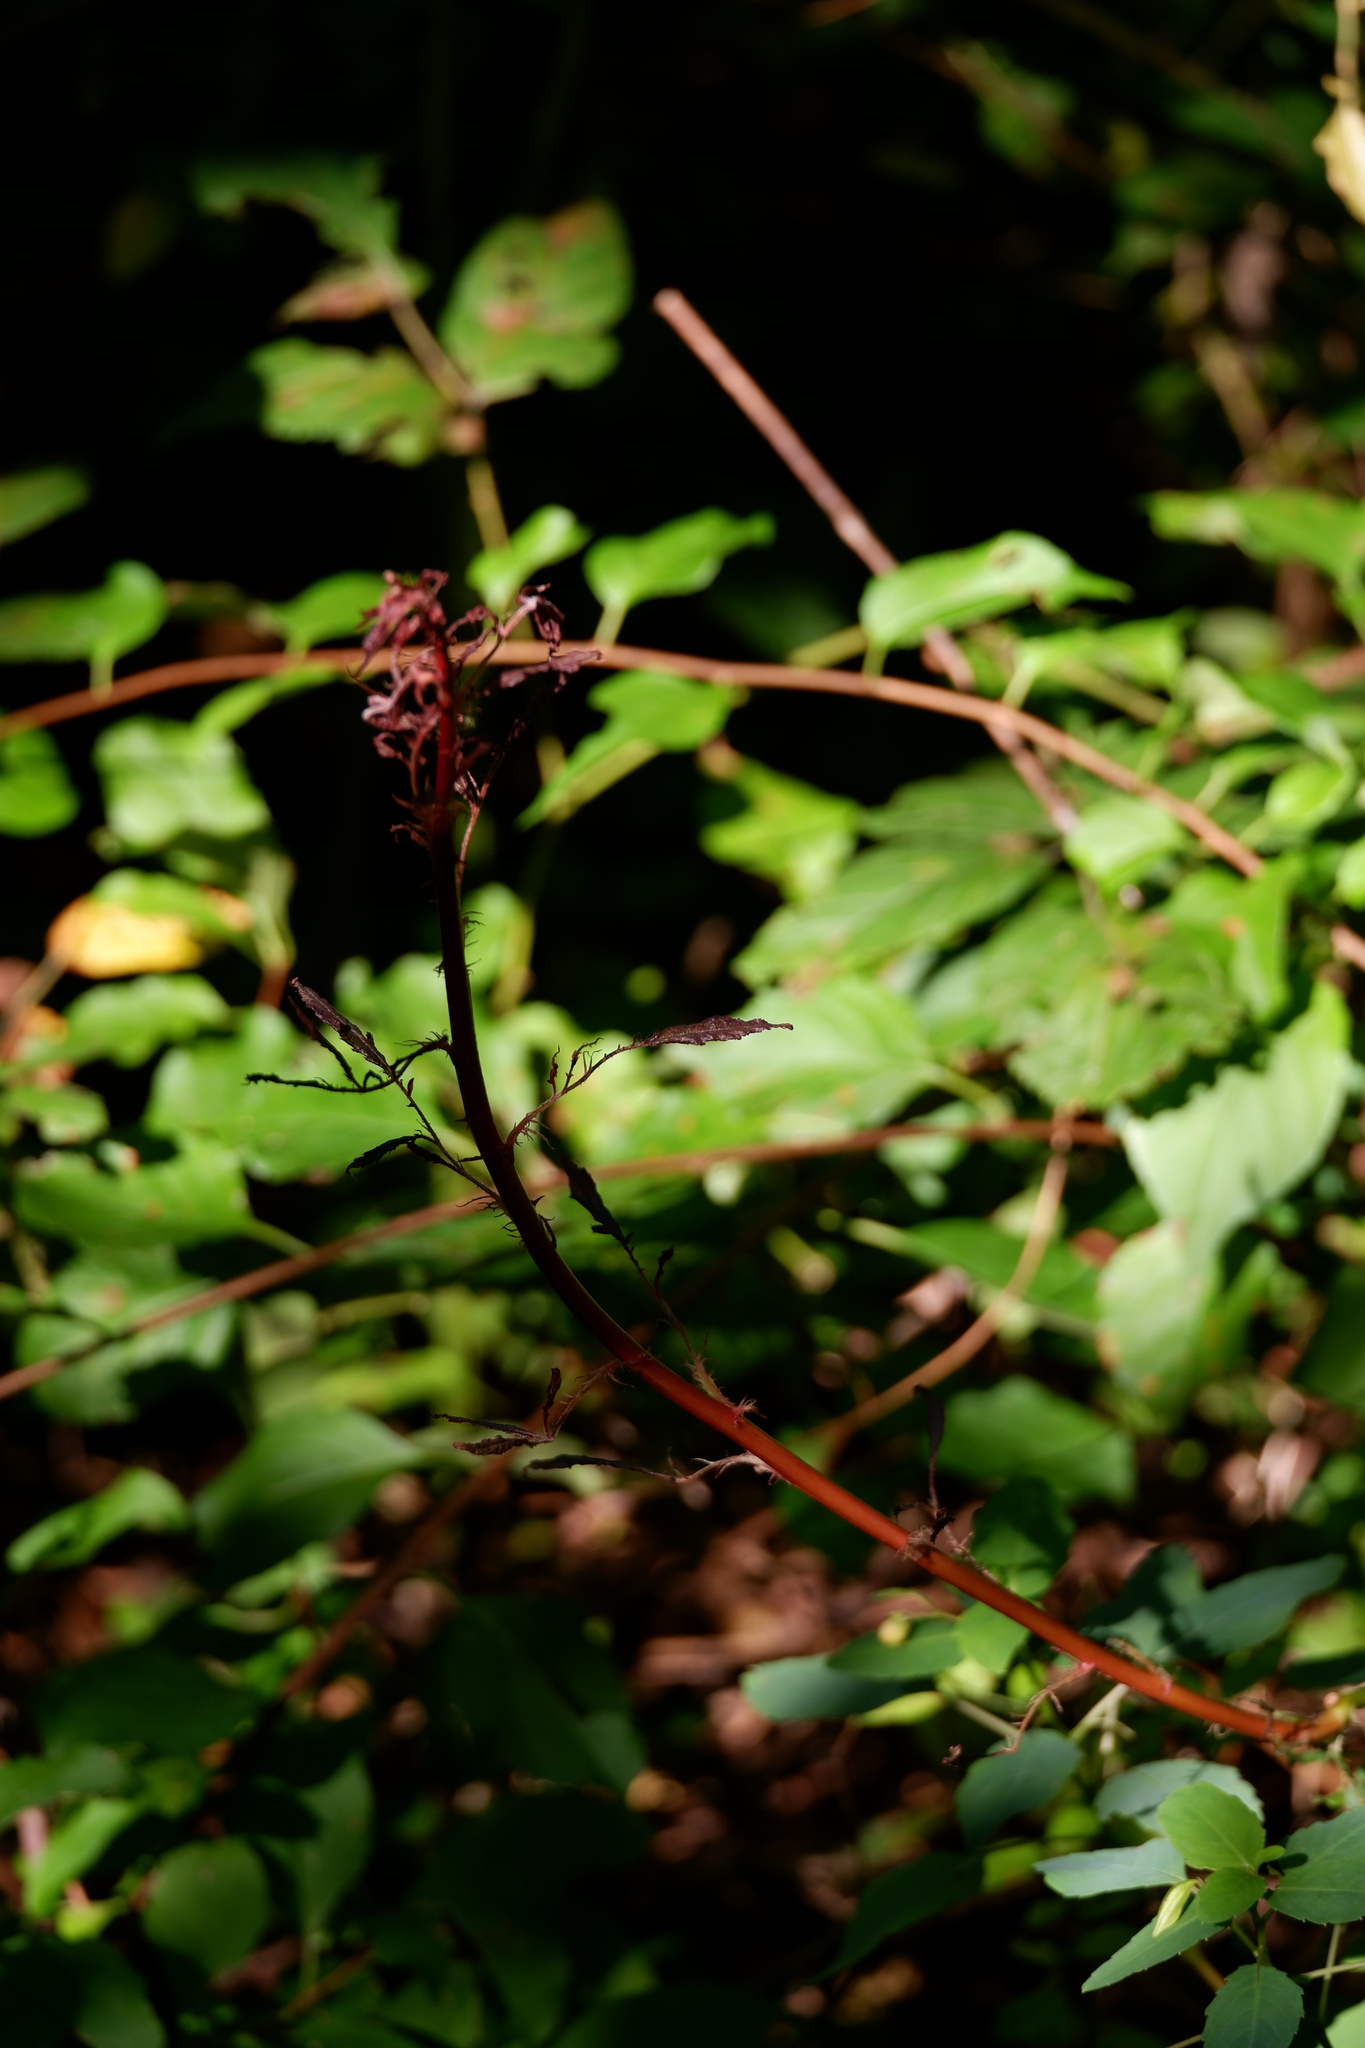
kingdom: Viruses
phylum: Negarnaviricota
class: Ellioviricetes
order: Bunyavirales
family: Fimoviridae
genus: Emaravirus
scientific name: Emaravirus rosae
